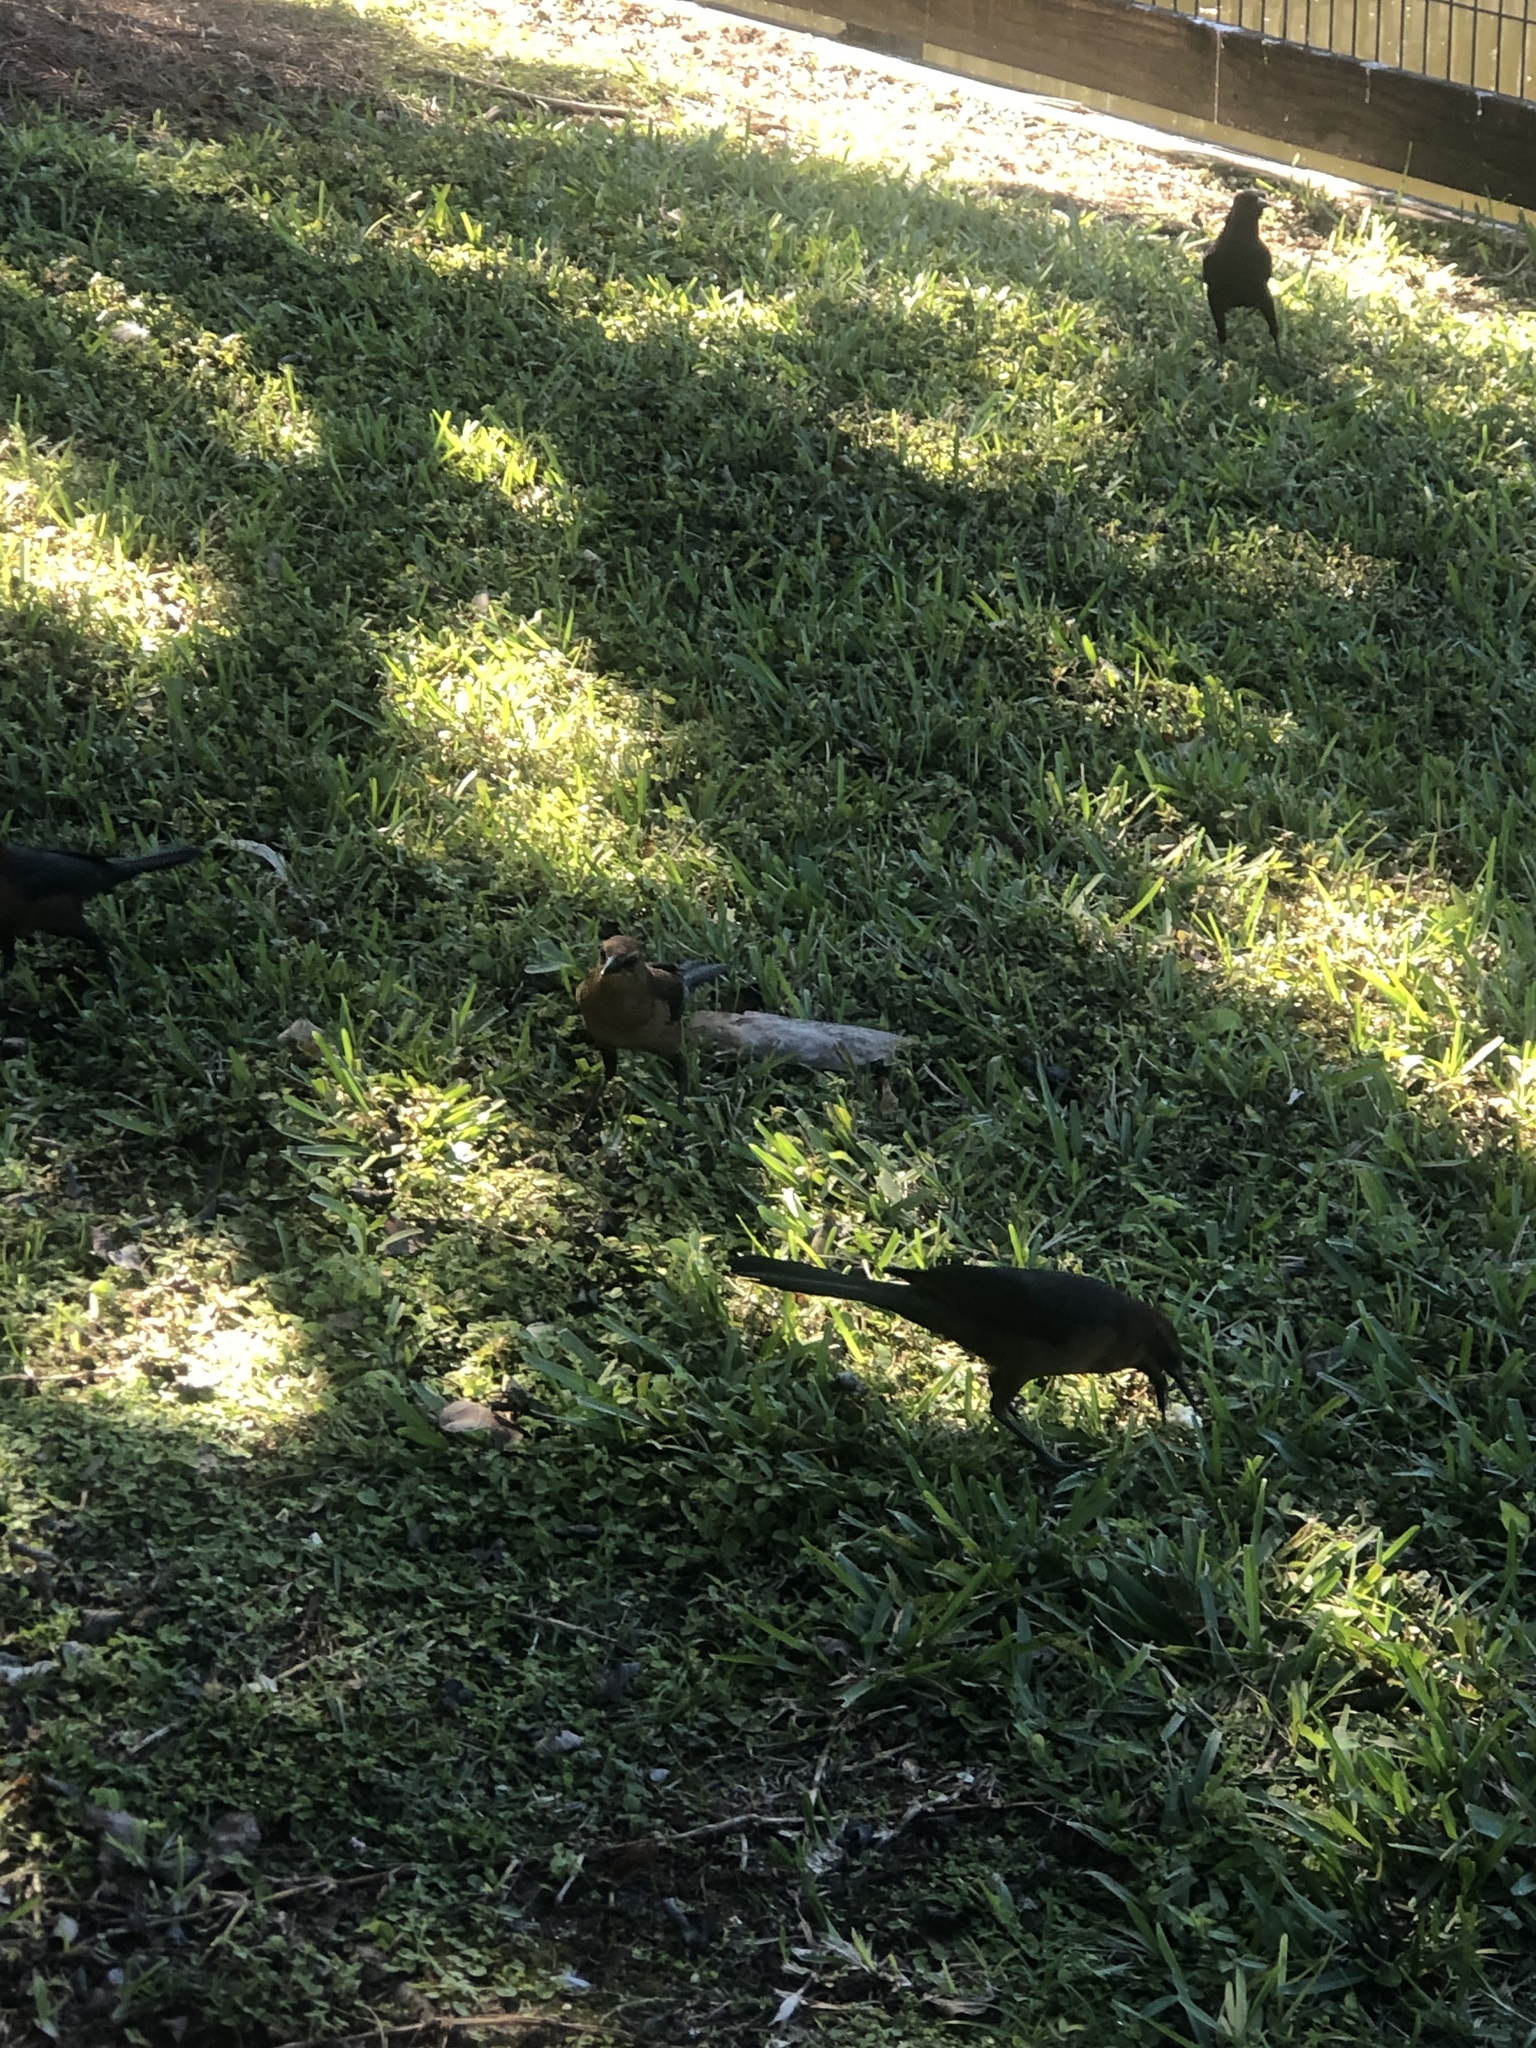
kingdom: Animalia
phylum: Chordata
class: Aves
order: Passeriformes
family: Icteridae
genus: Quiscalus
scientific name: Quiscalus major
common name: Boat-tailed grackle
